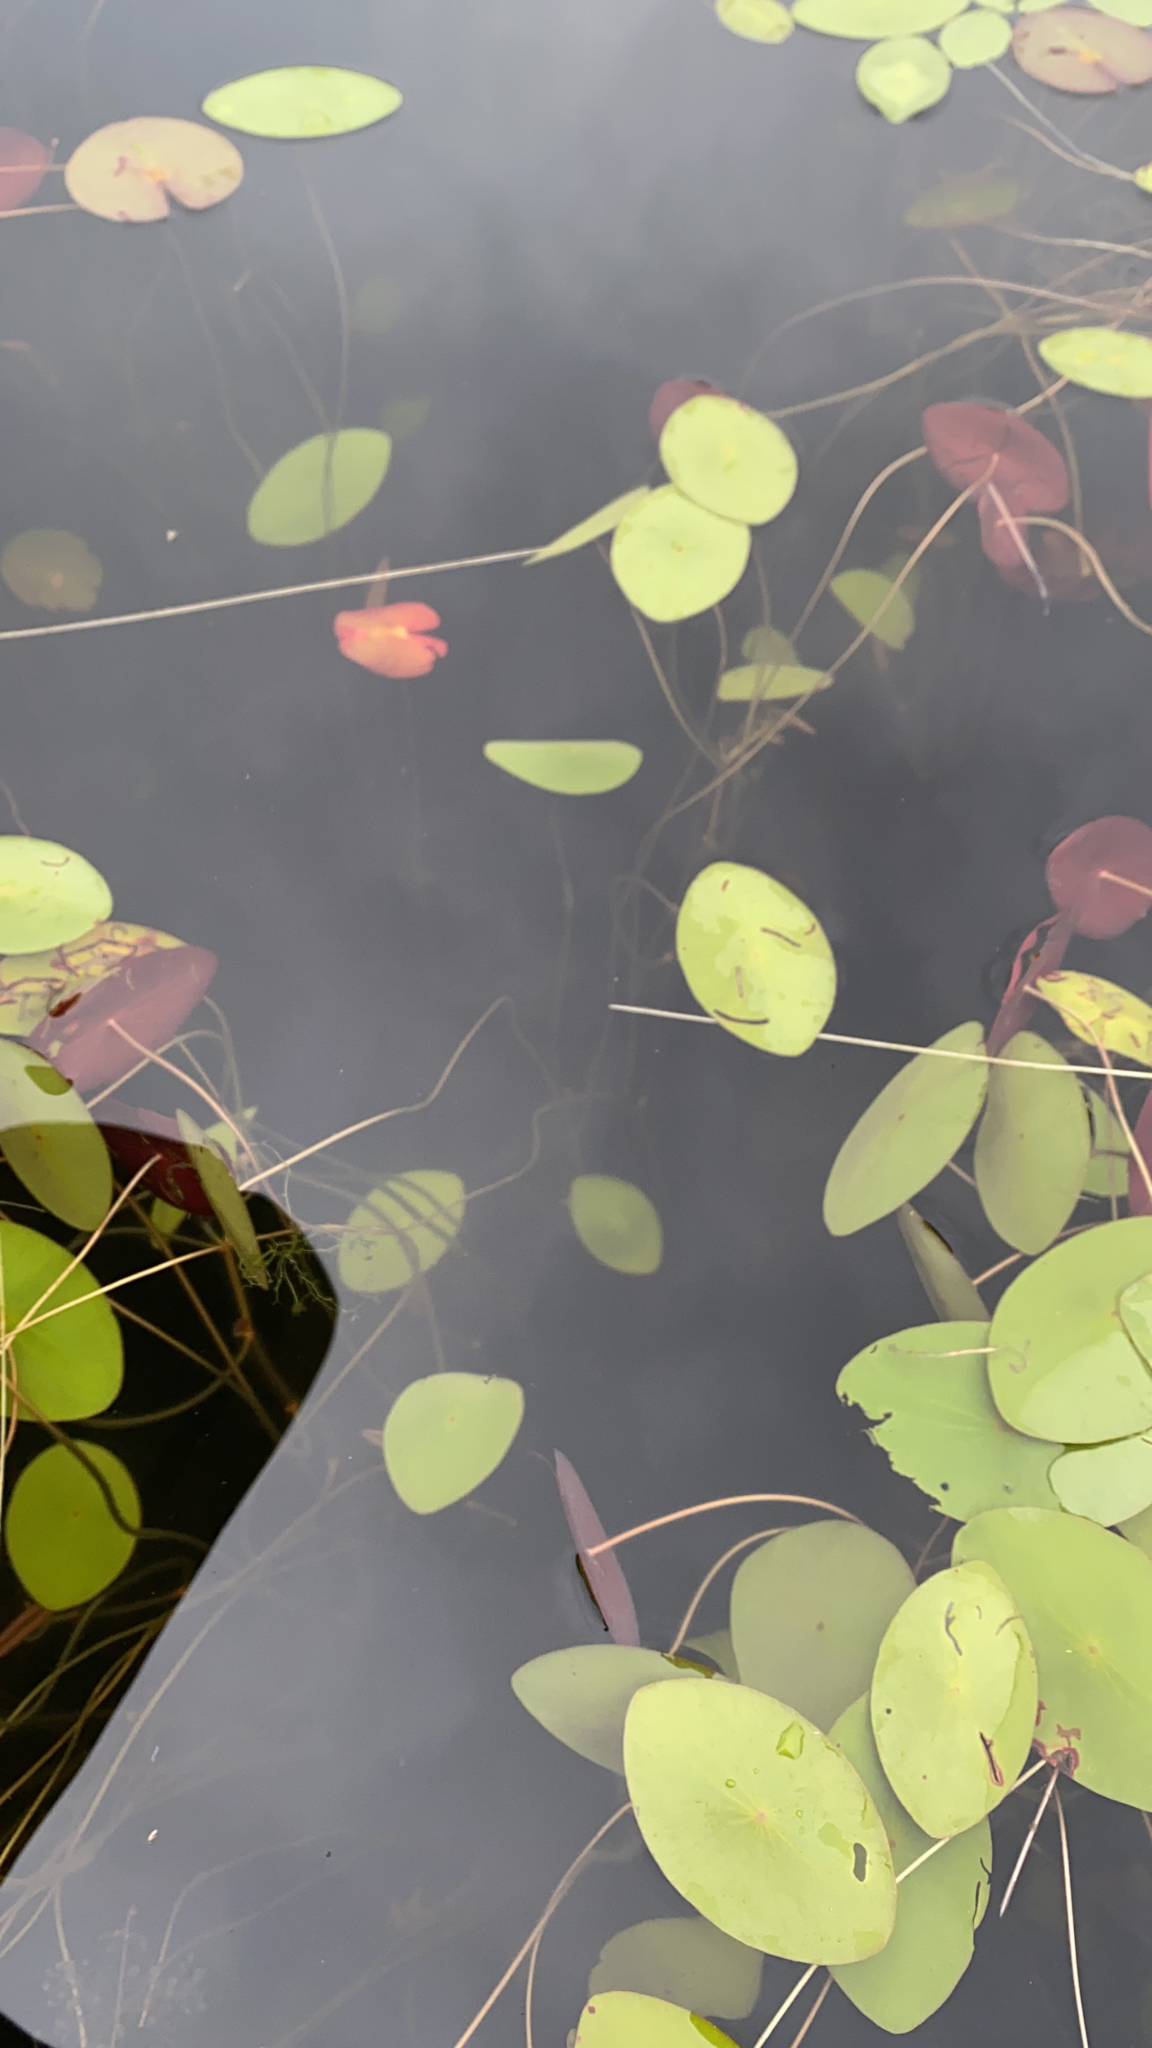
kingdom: Plantae
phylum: Tracheophyta
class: Magnoliopsida
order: Nymphaeales
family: Cabombaceae
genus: Brasenia
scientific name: Brasenia schreberi
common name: Water-shield
